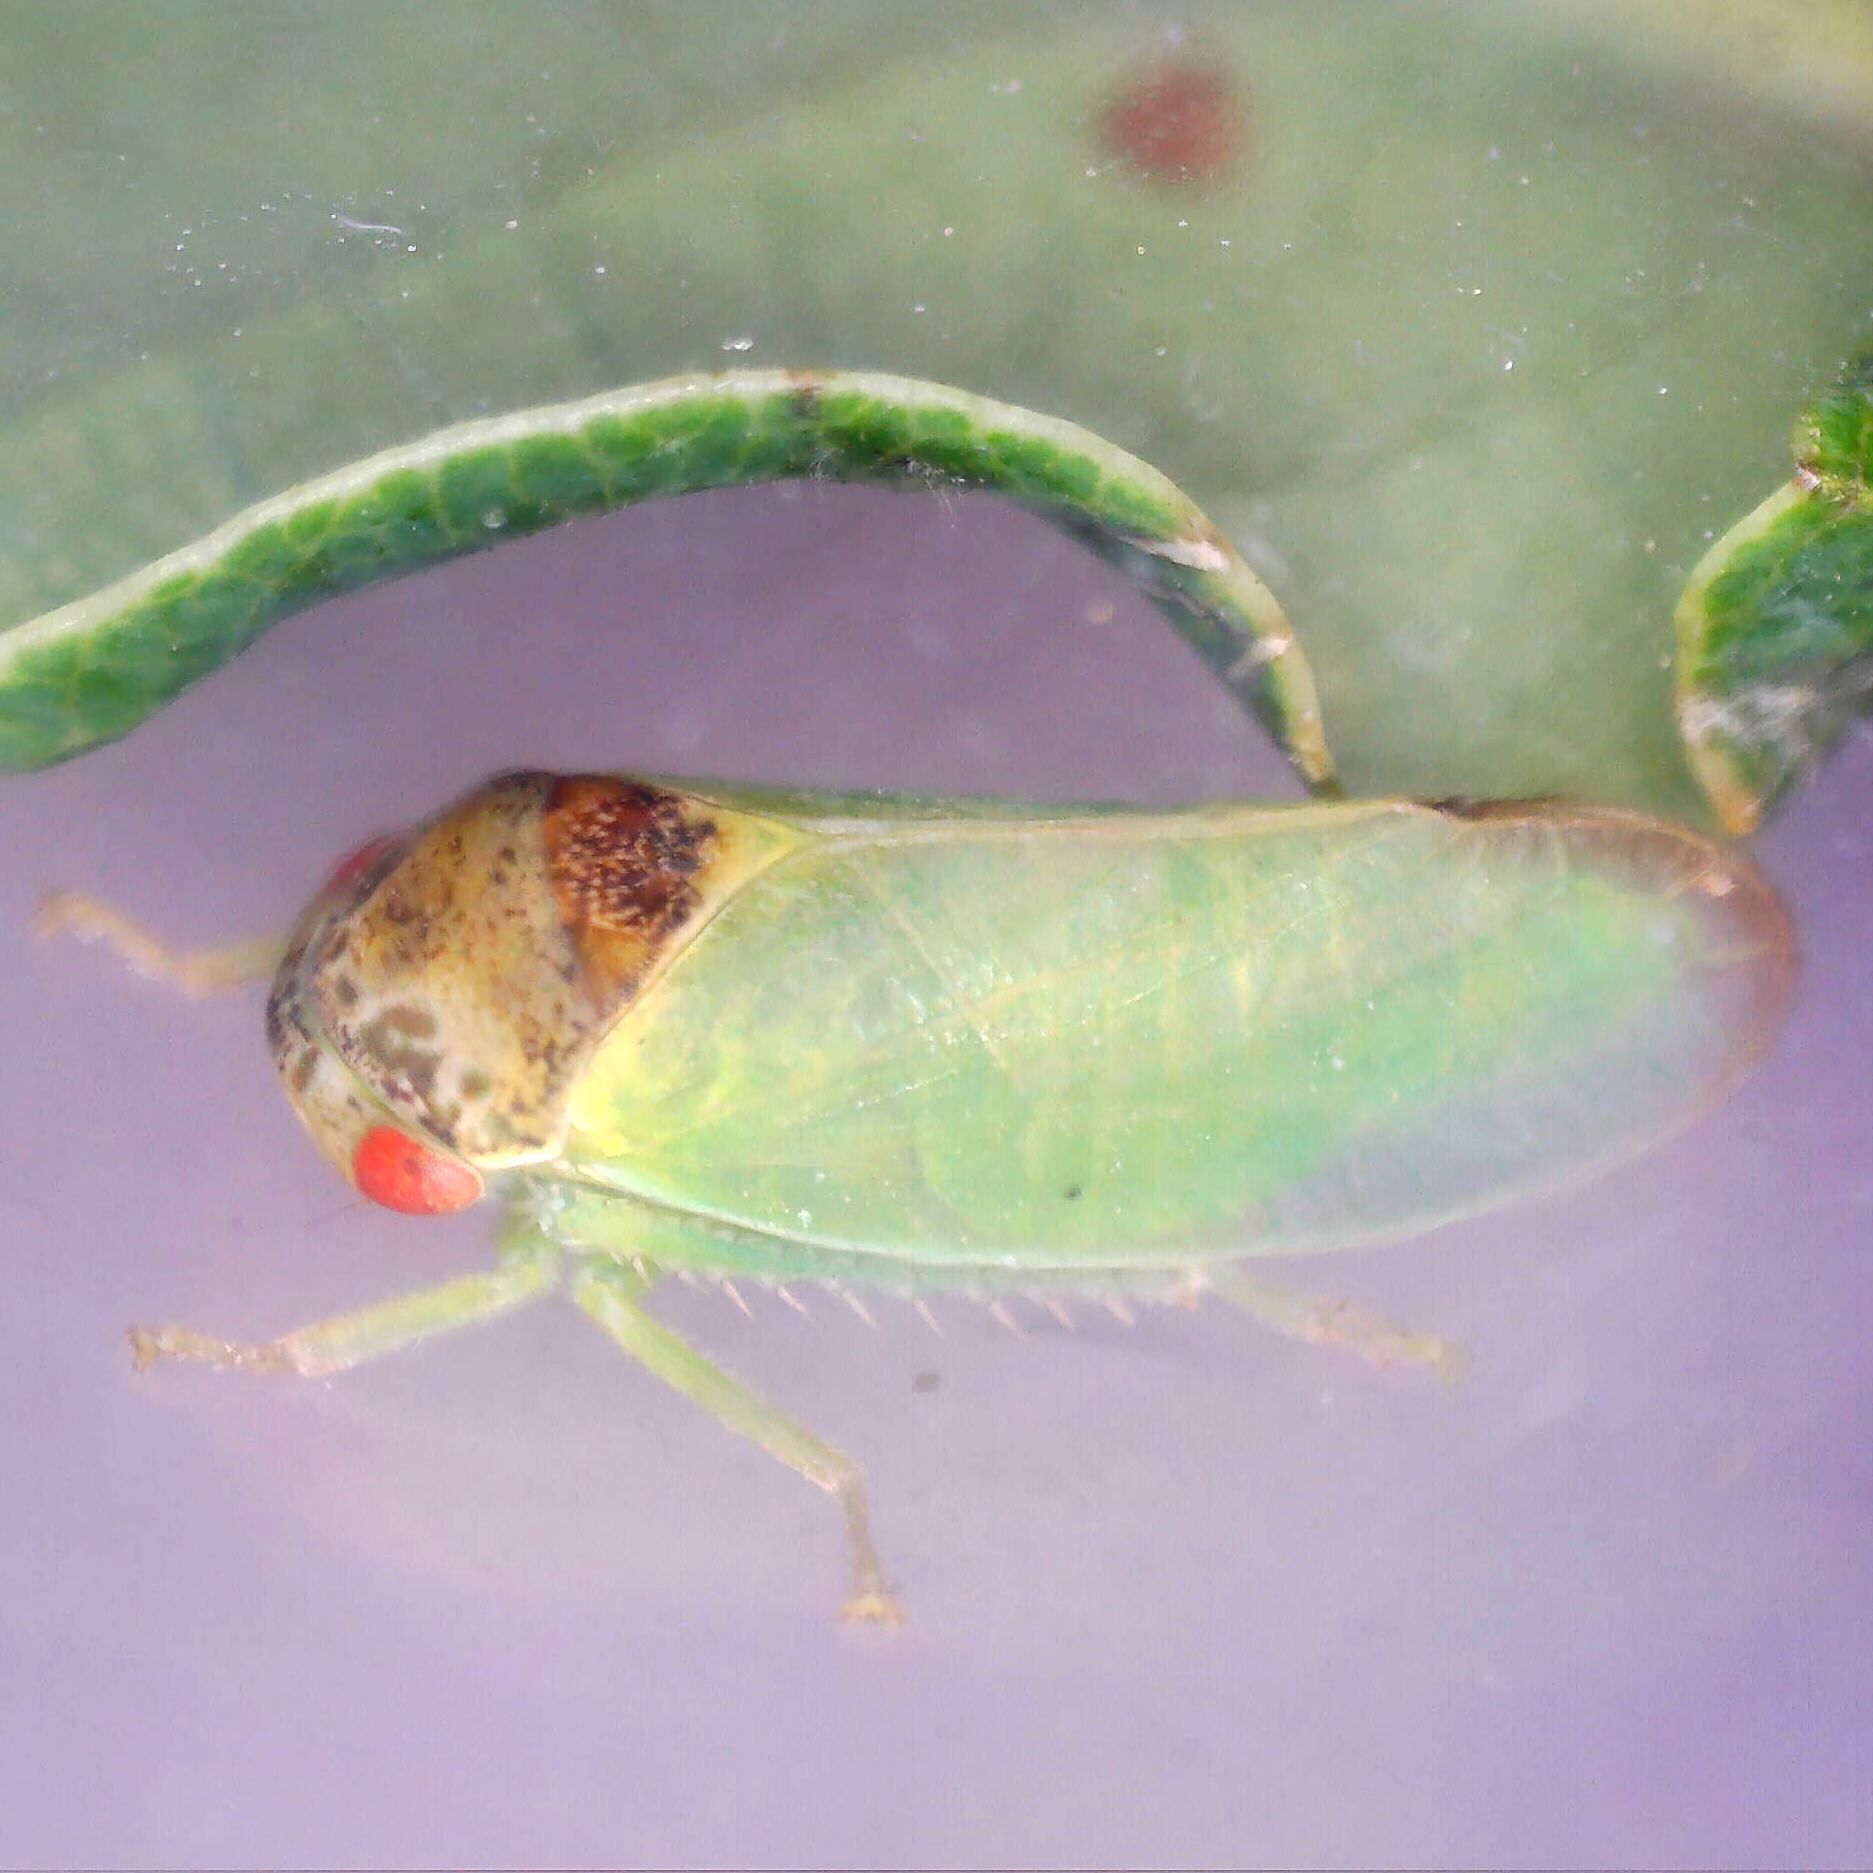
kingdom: Animalia
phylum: Arthropoda
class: Insecta
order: Hemiptera
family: Cicadellidae
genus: Iassus
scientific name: Iassus lanio
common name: Leafhopper
